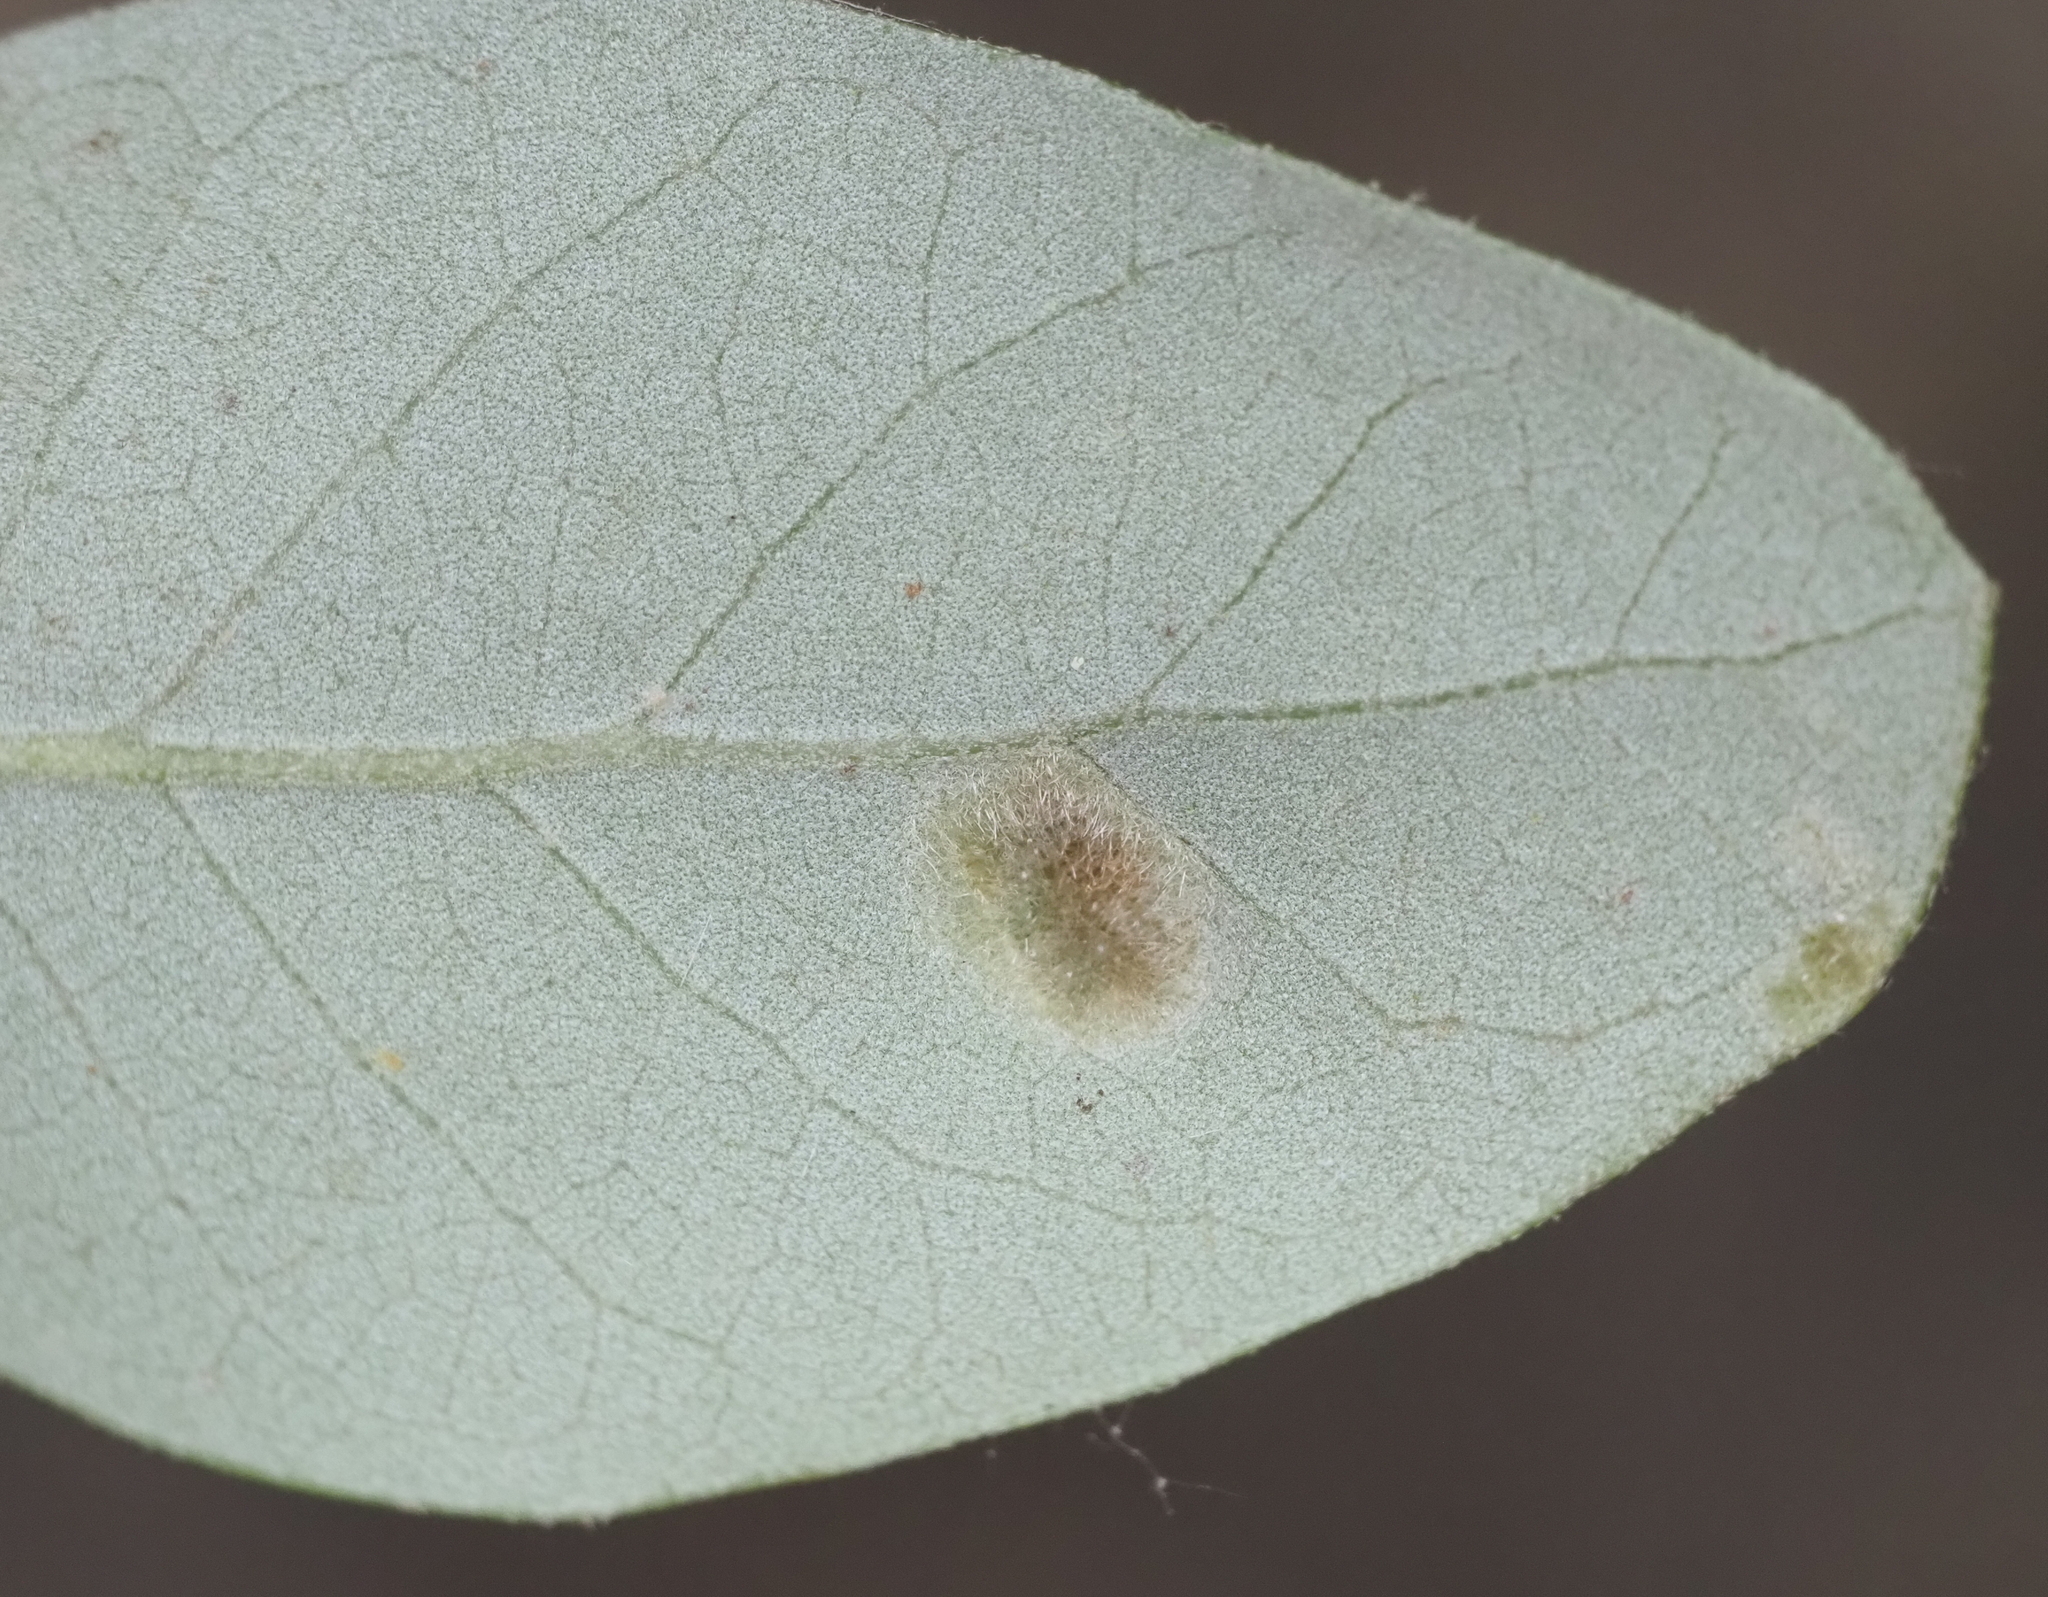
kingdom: Animalia
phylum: Arthropoda
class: Arachnida
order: Trombidiformes
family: Eriophyidae
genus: Aceria
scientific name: Aceria quercina
